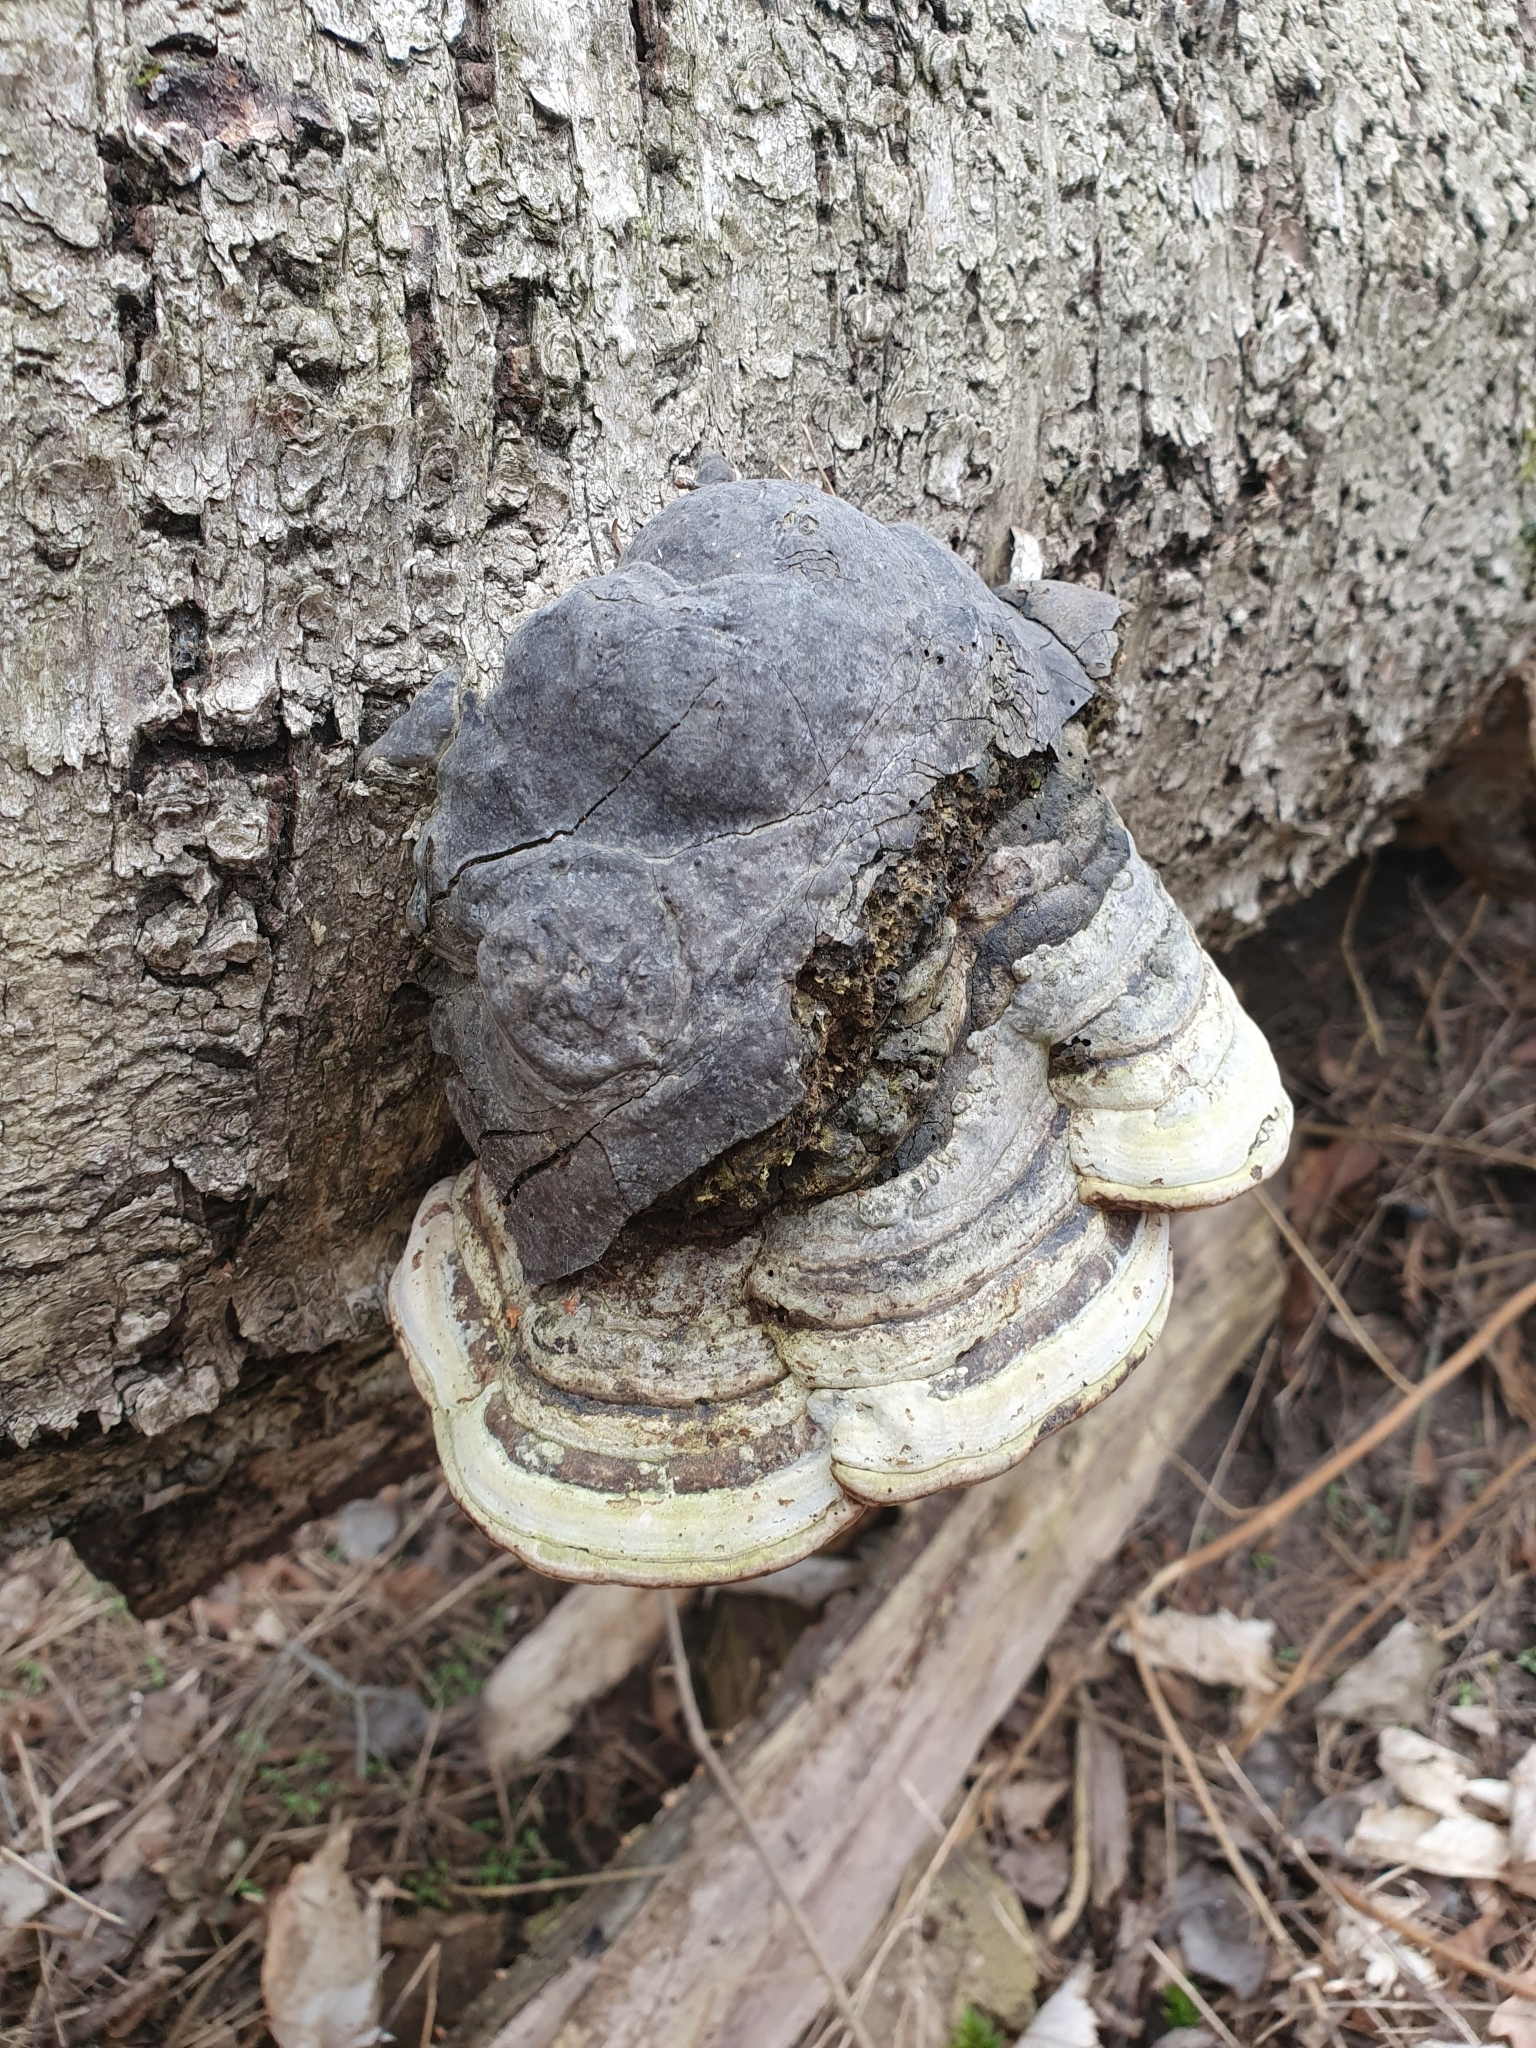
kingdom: Fungi
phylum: Basidiomycota
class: Agaricomycetes
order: Polyporales
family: Polyporaceae
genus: Fomes
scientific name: Fomes fomentarius
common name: Hoof fungus
